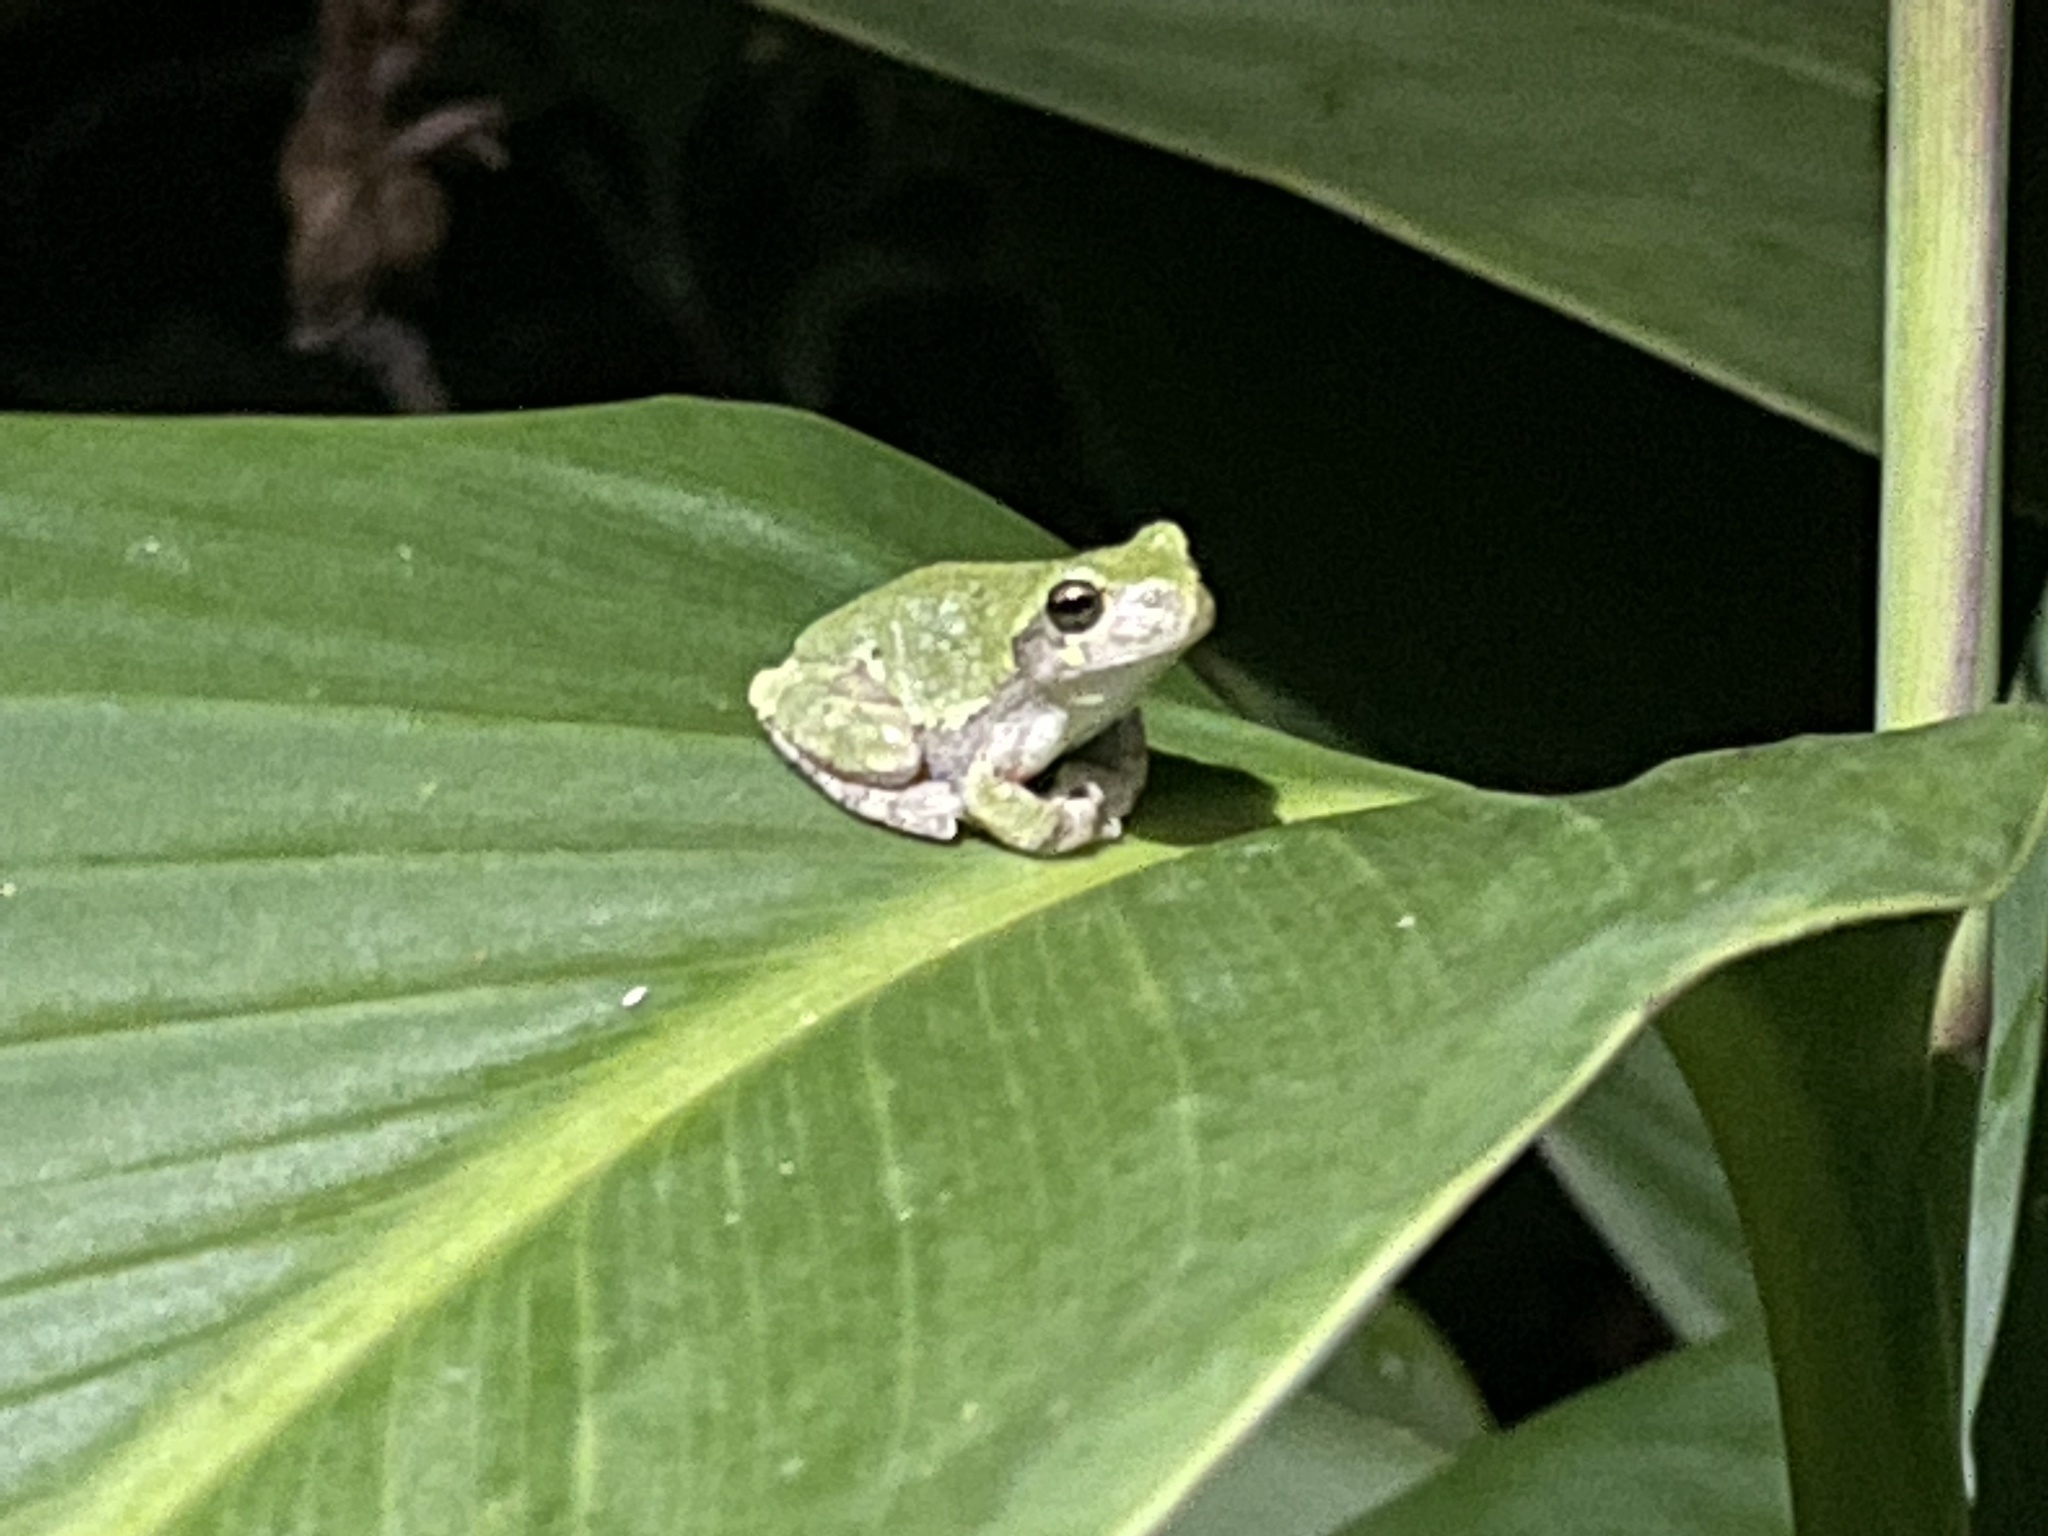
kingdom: Animalia
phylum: Chordata
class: Amphibia
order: Anura
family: Hylidae
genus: Dryophytes
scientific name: Dryophytes versicolor
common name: Gray treefrog
